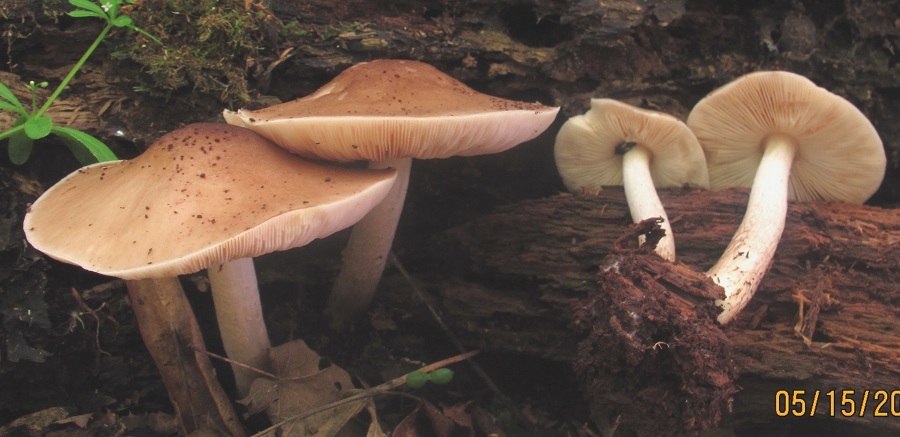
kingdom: Fungi
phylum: Basidiomycota
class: Agaricomycetes
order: Agaricales
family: Pluteaceae
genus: Pluteus
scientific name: Pluteus cervinus
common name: Deer shield
